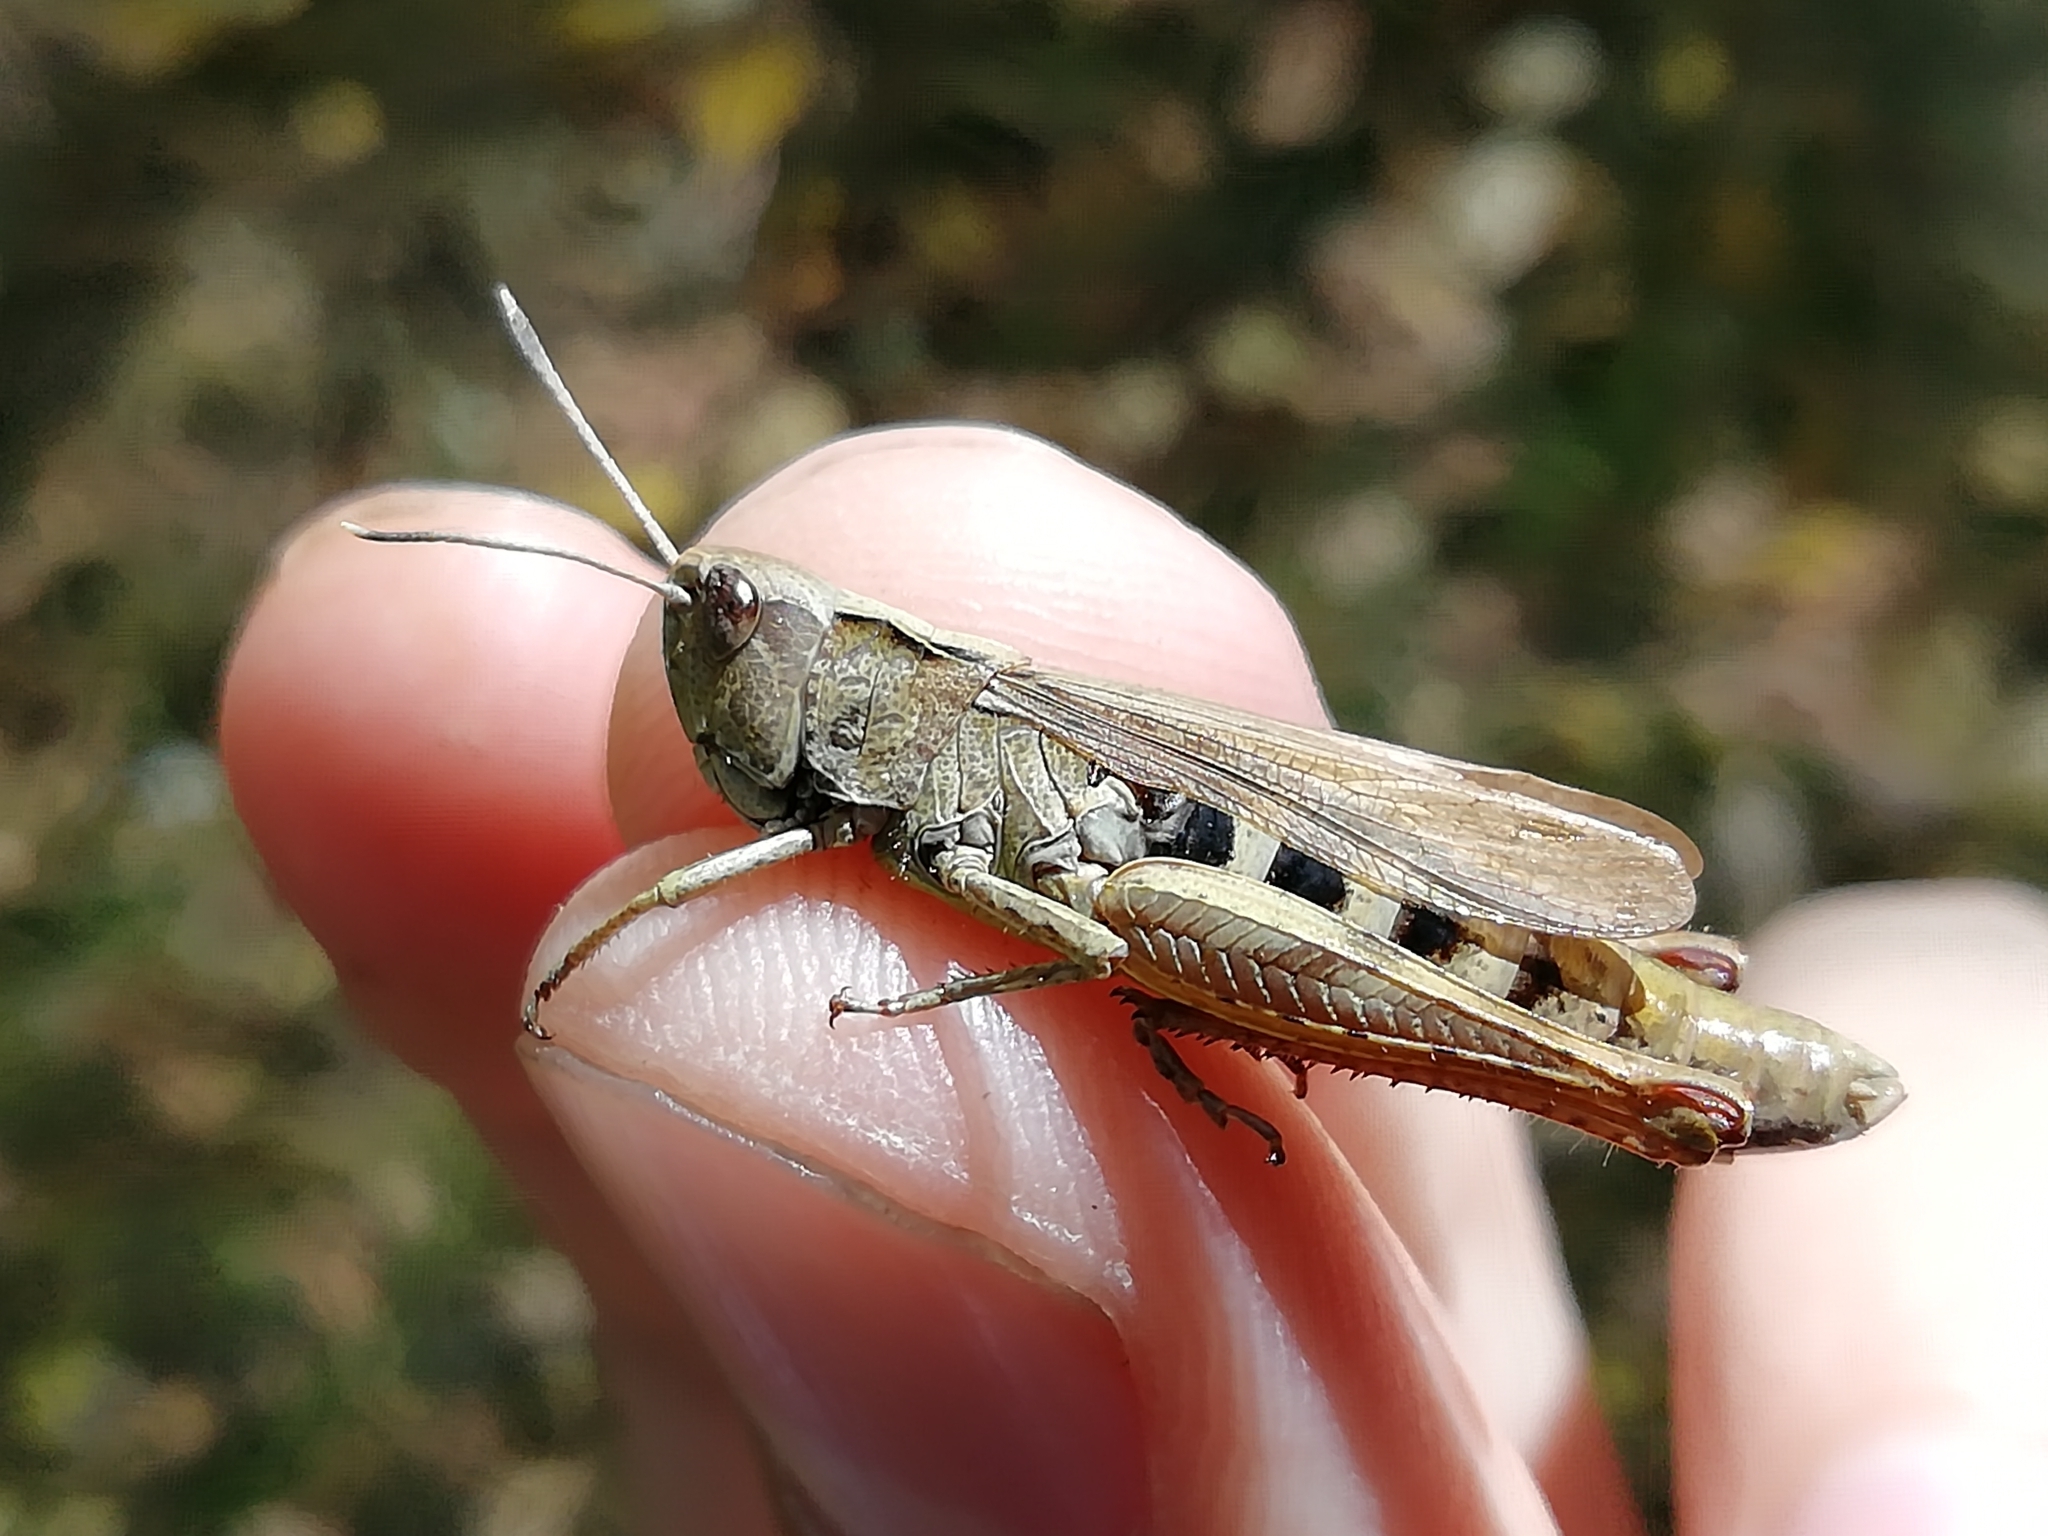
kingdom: Animalia
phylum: Arthropoda
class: Insecta
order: Orthoptera
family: Acrididae
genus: Gomphocerippus
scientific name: Gomphocerippus rufus
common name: Rufous grasshopper
